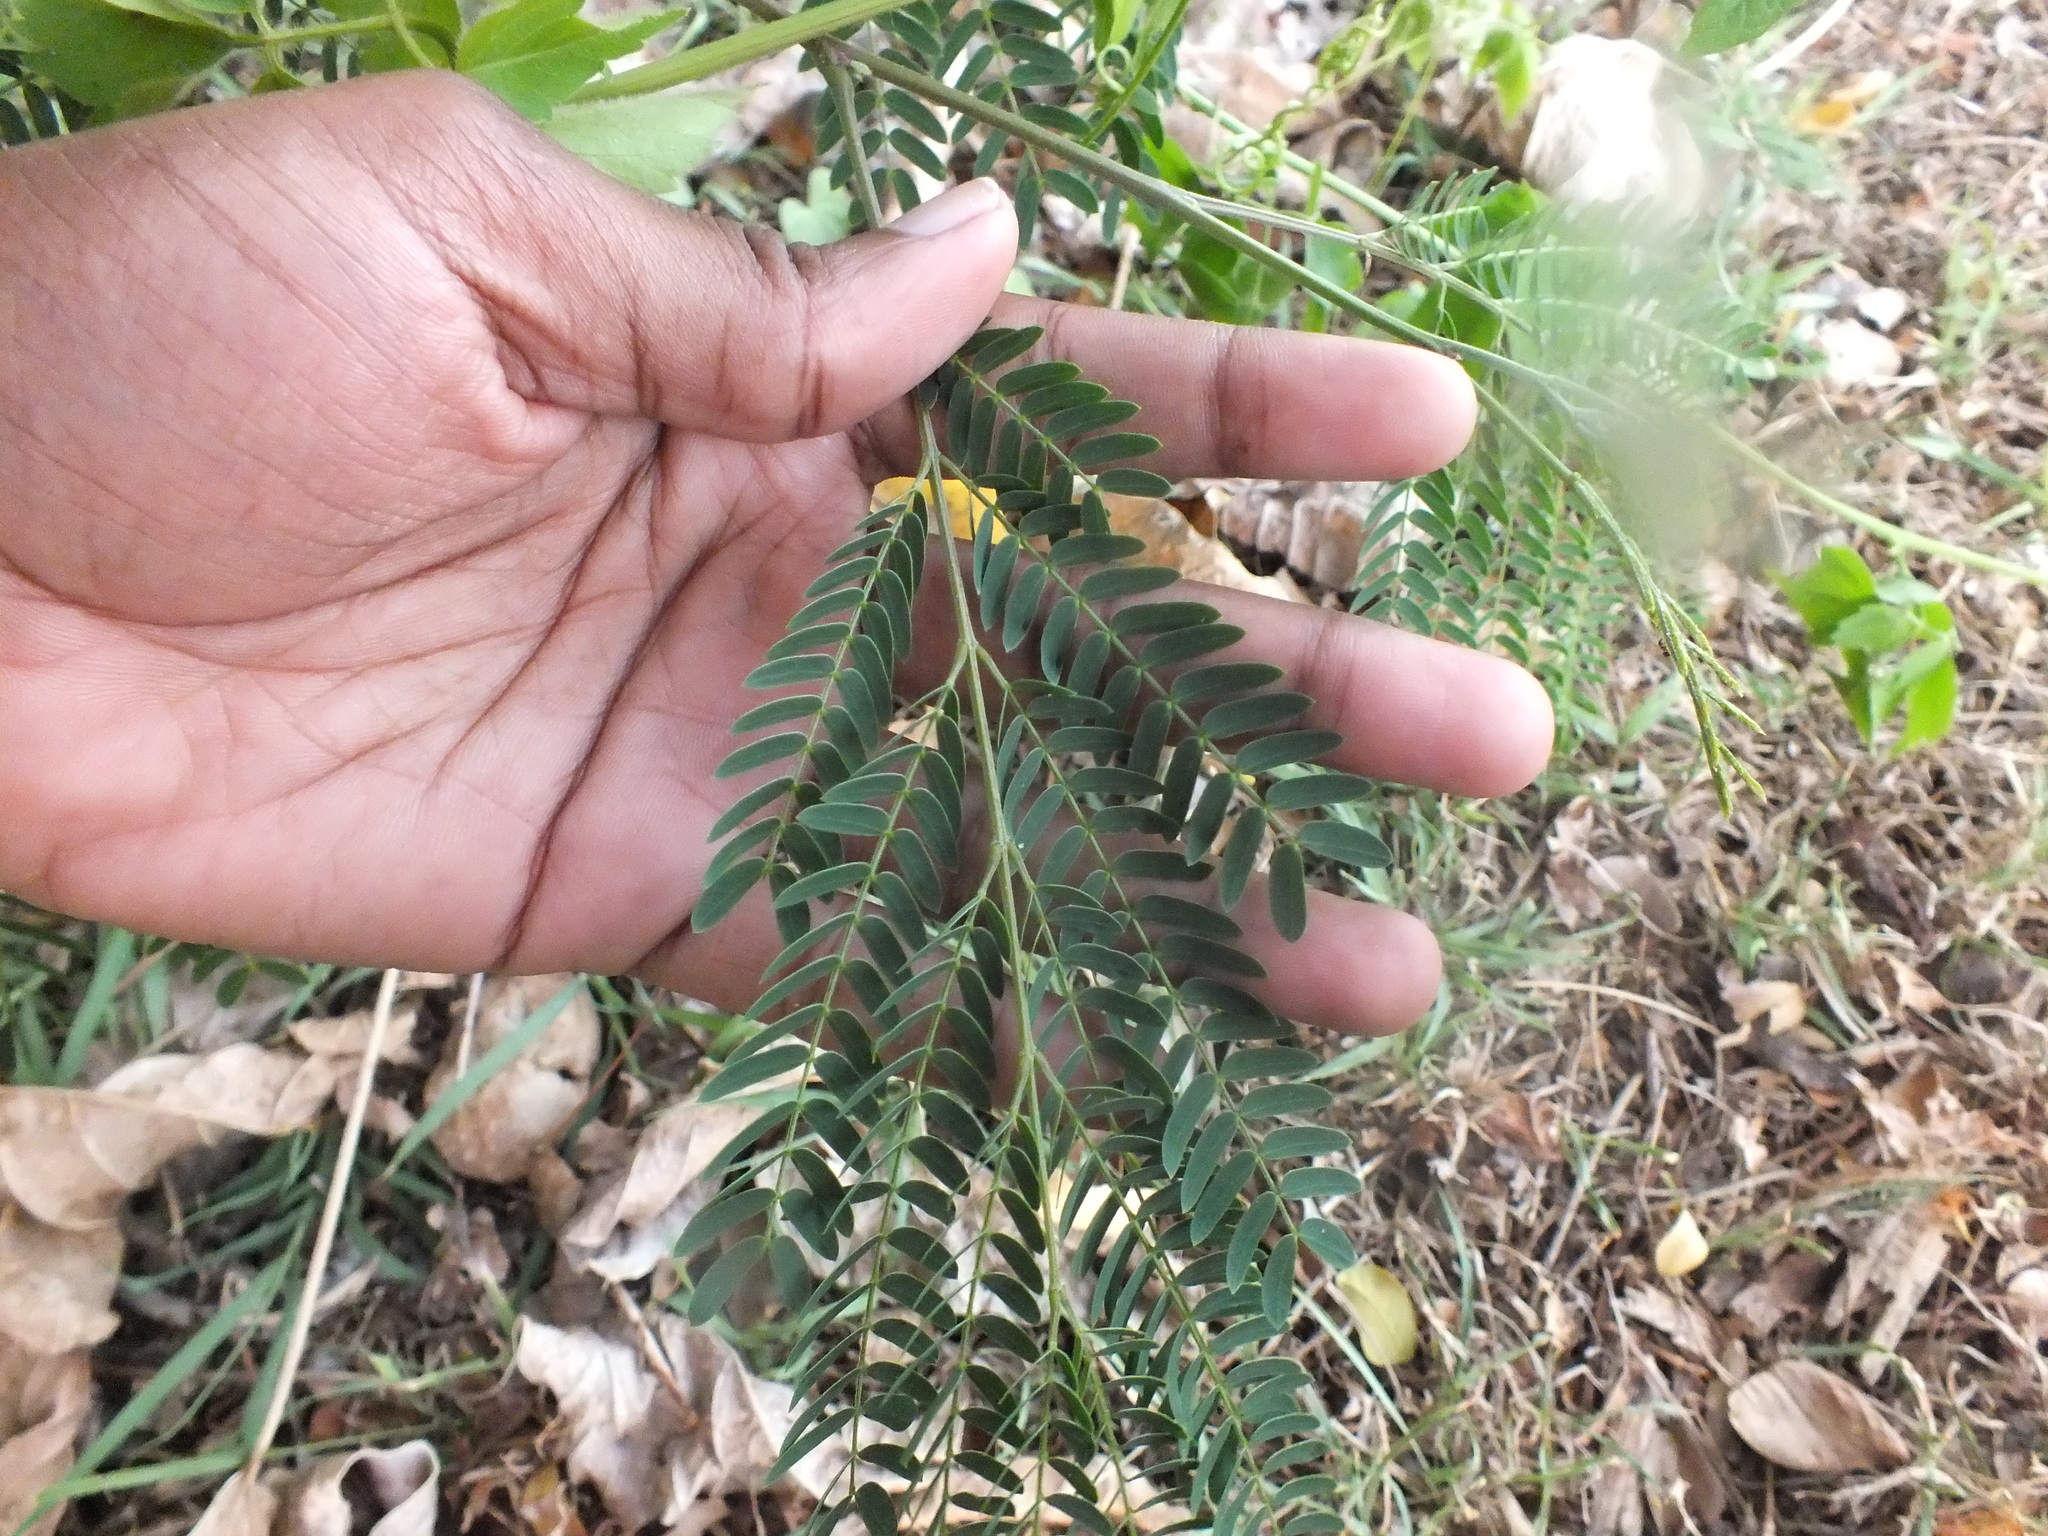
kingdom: Plantae
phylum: Tracheophyta
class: Magnoliopsida
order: Fabales
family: Fabaceae
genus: Leucaena
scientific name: Leucaena leucocephala
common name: White leadtree
